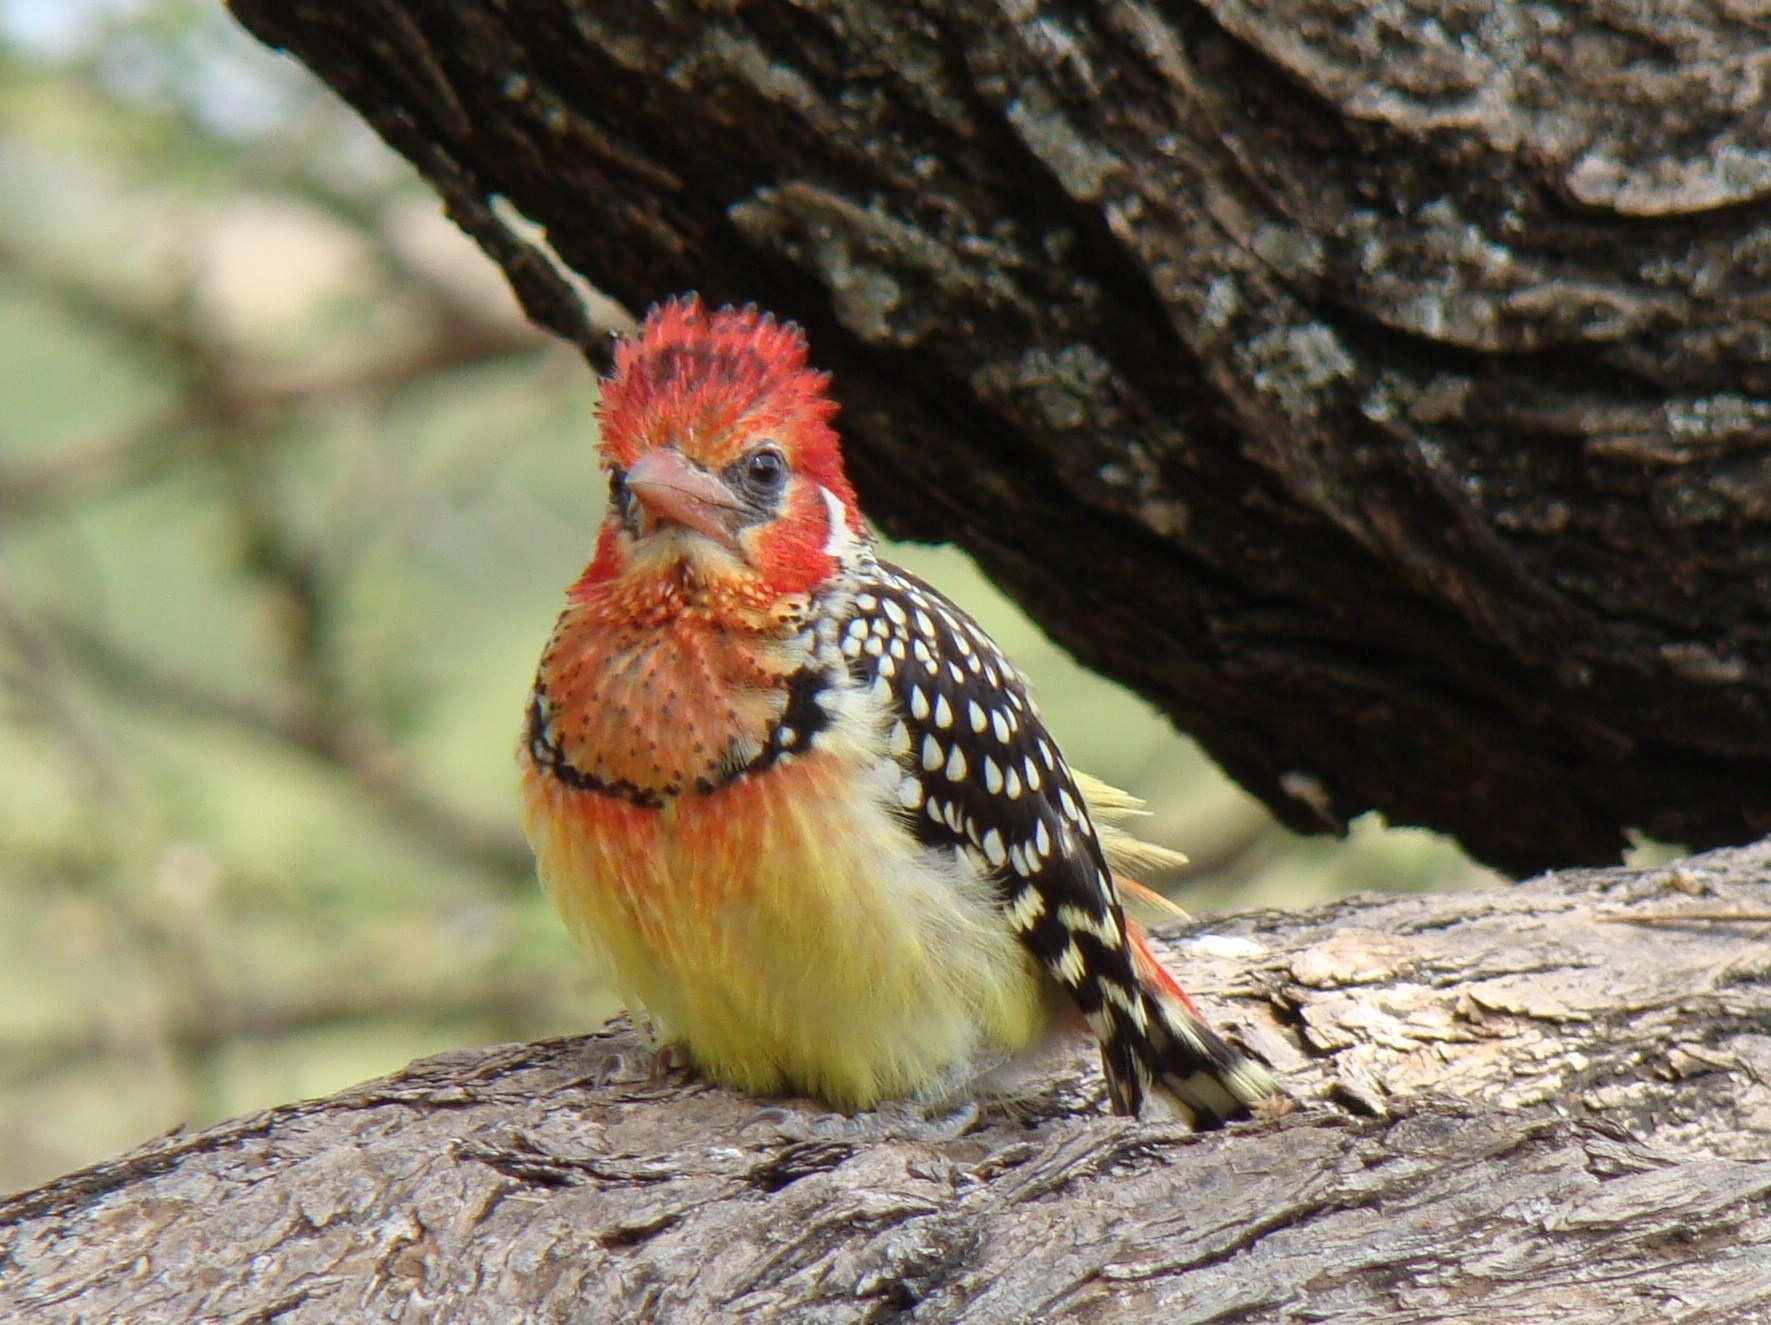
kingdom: Animalia
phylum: Chordata
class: Aves
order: Piciformes
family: Lybiidae
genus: Trachyphonus
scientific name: Trachyphonus erythrocephalus
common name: Red-and-yellow barbet
